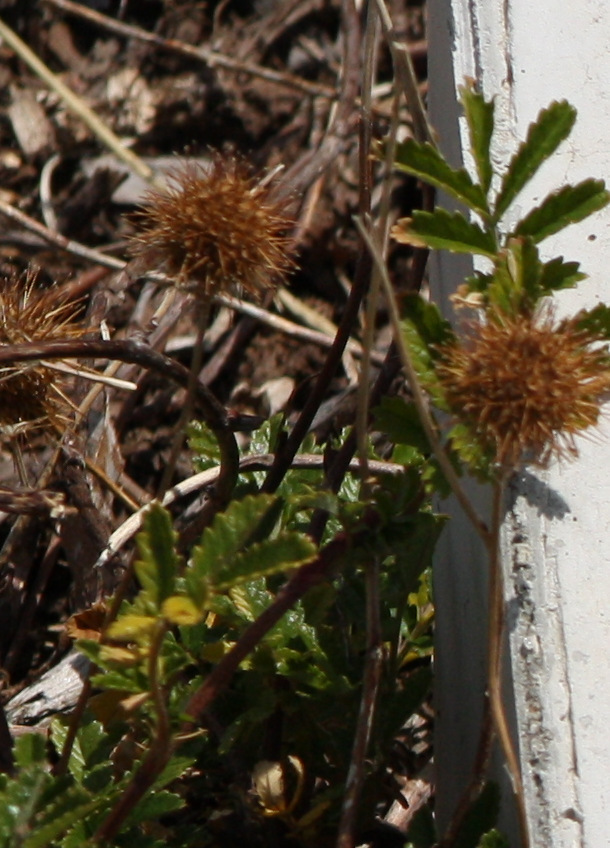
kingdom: Plantae
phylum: Tracheophyta
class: Magnoliopsida
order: Rosales
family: Rosaceae
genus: Acaena
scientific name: Acaena novae-zelandiae
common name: Pirri-pirri-bur
